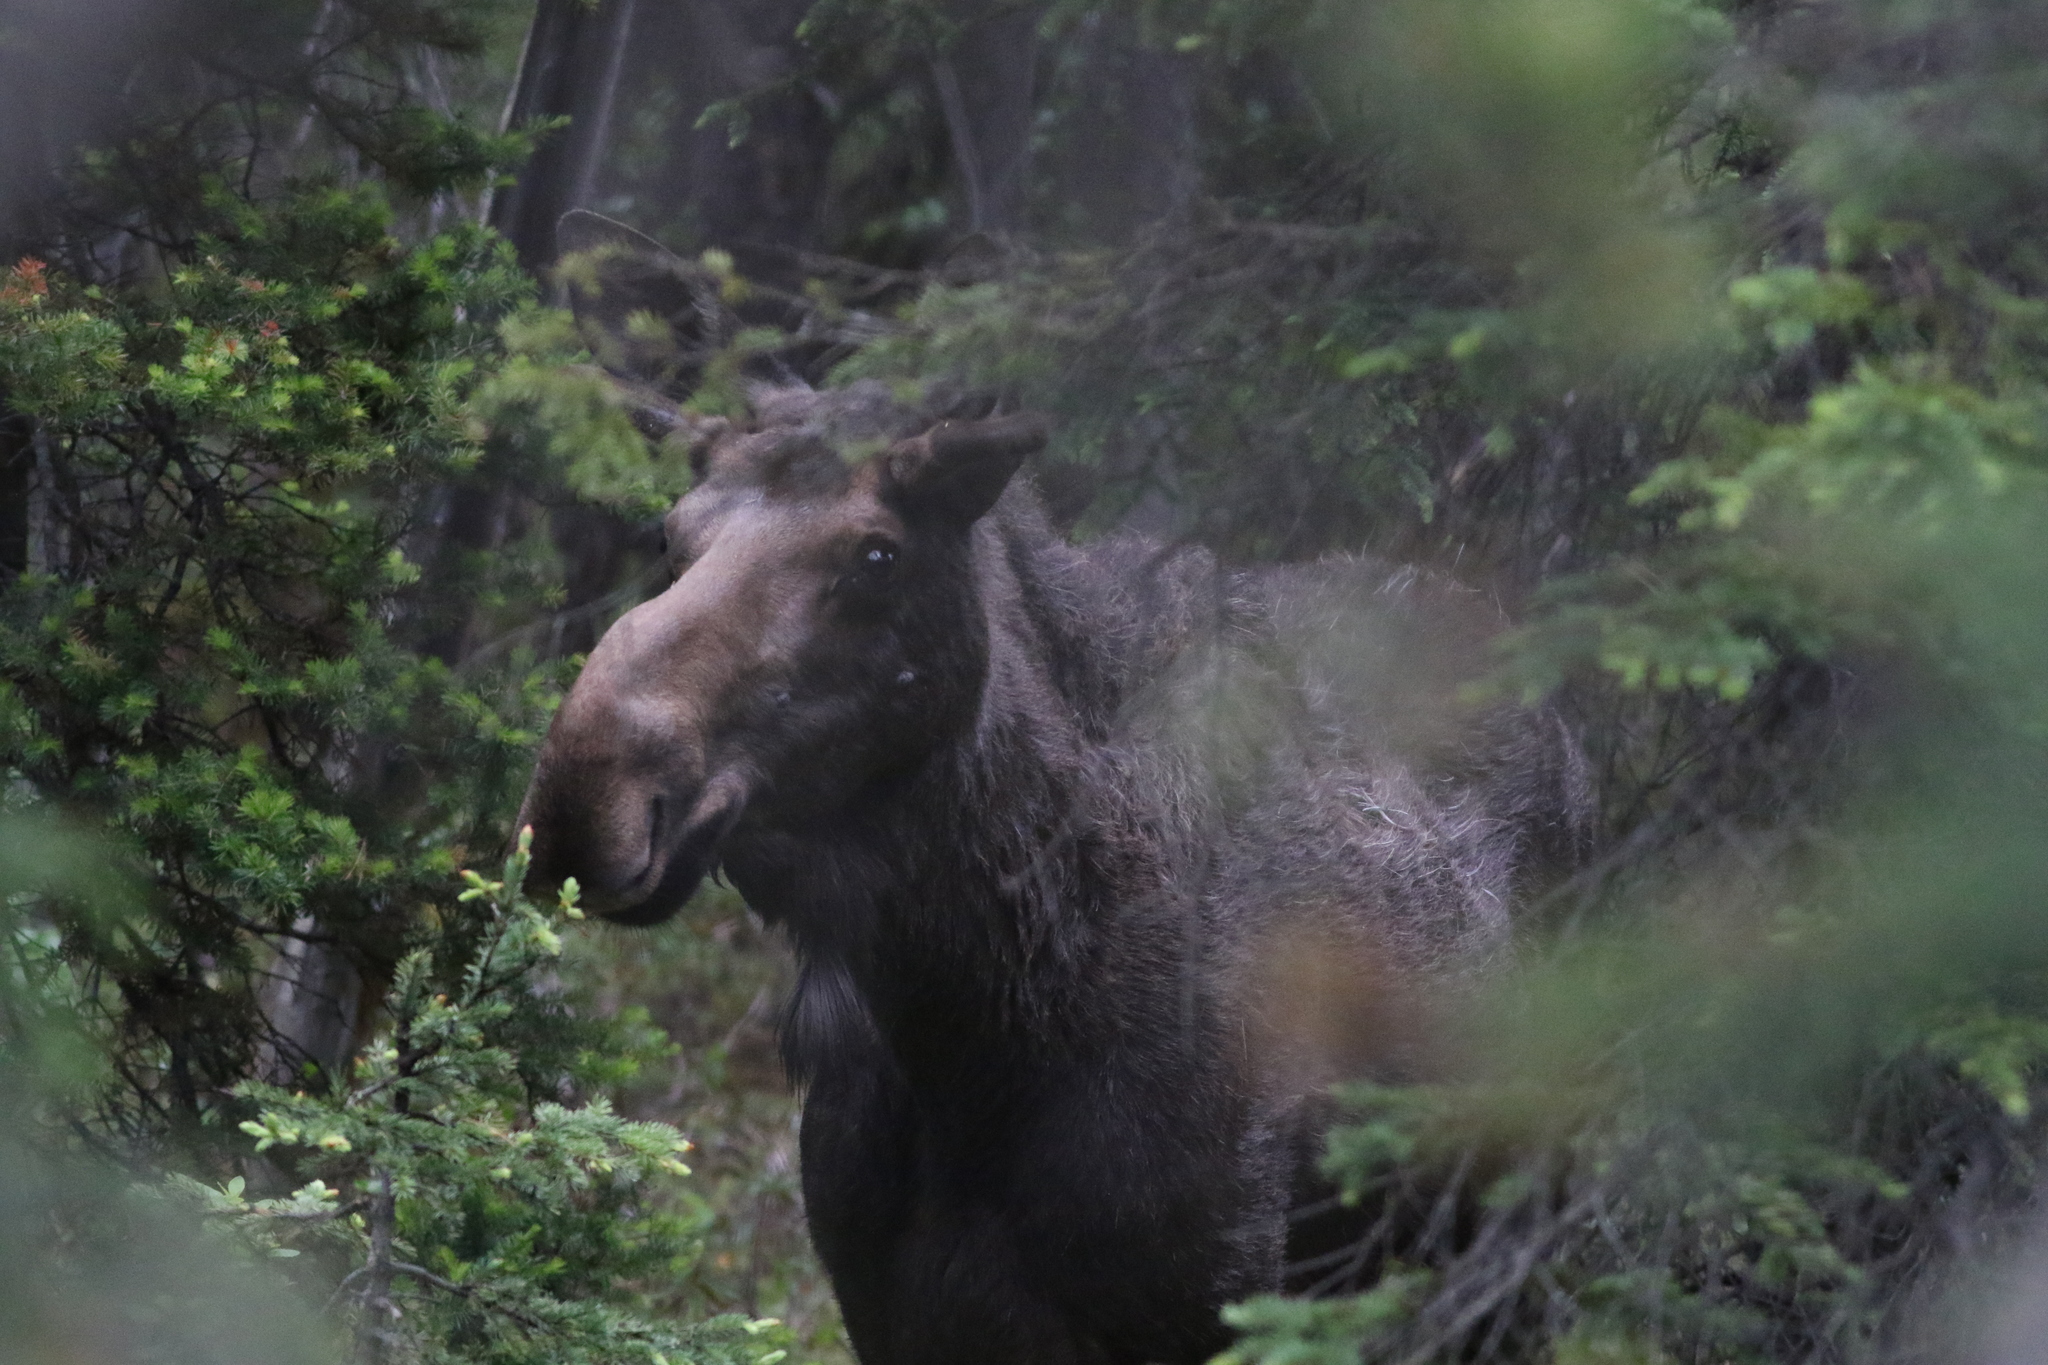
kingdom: Animalia
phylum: Chordata
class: Mammalia
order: Artiodactyla
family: Cervidae
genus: Alces
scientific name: Alces alces
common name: Moose
